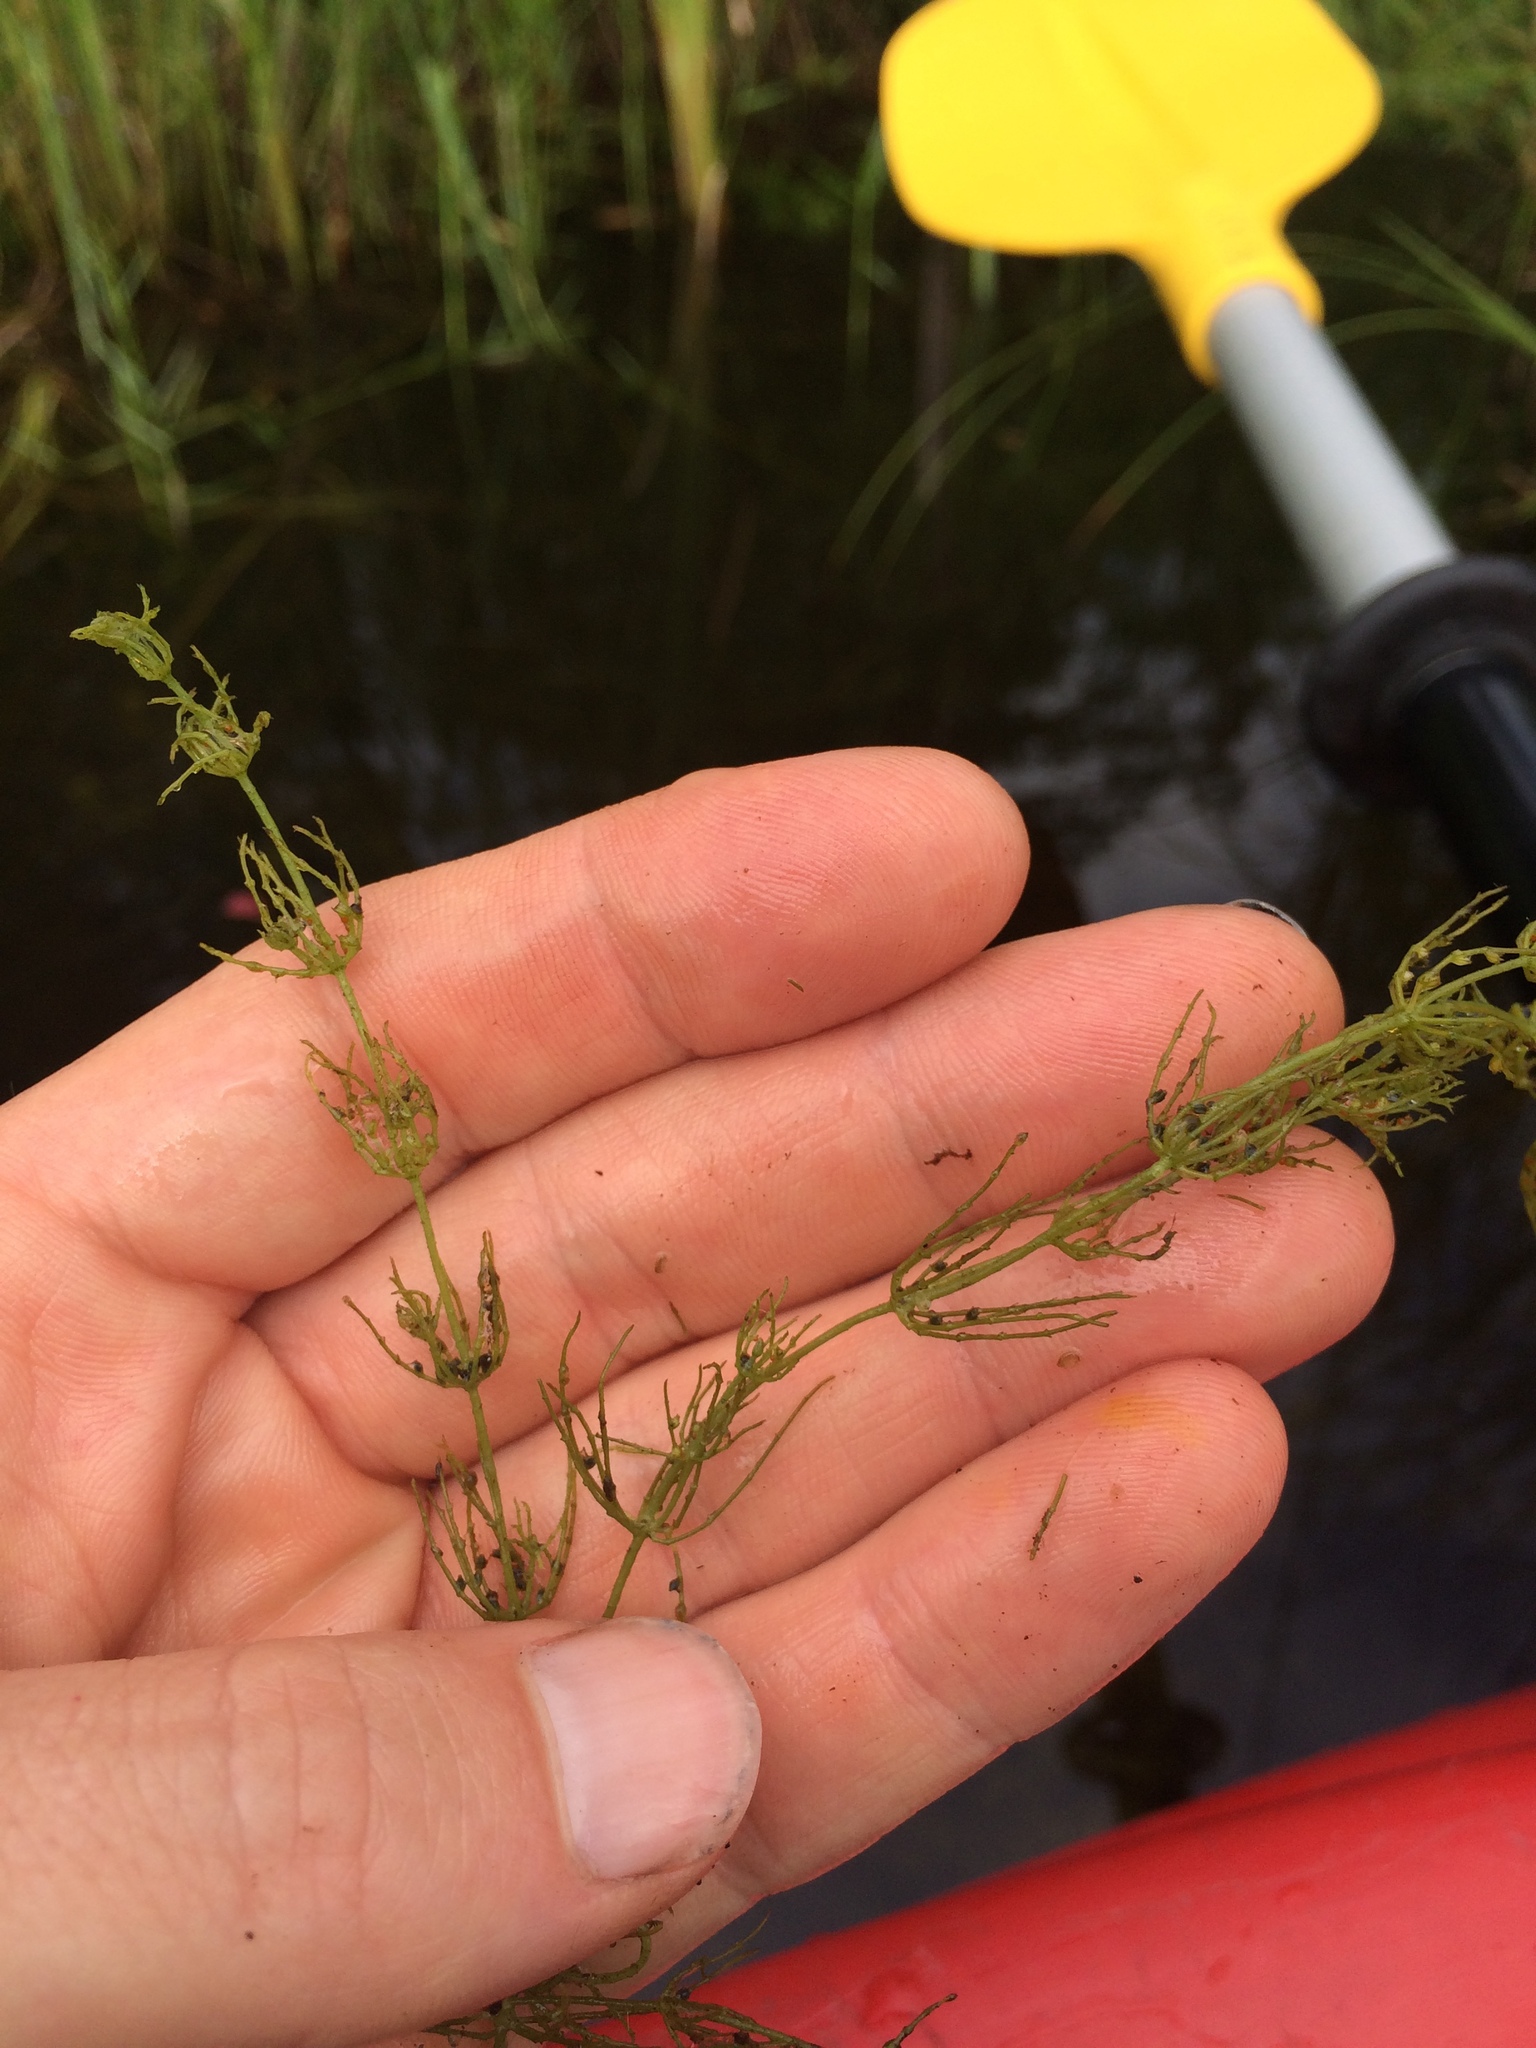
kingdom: Plantae
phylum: Charophyta
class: Charophyceae
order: Charales
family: Characeae
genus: Chara
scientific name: Chara
